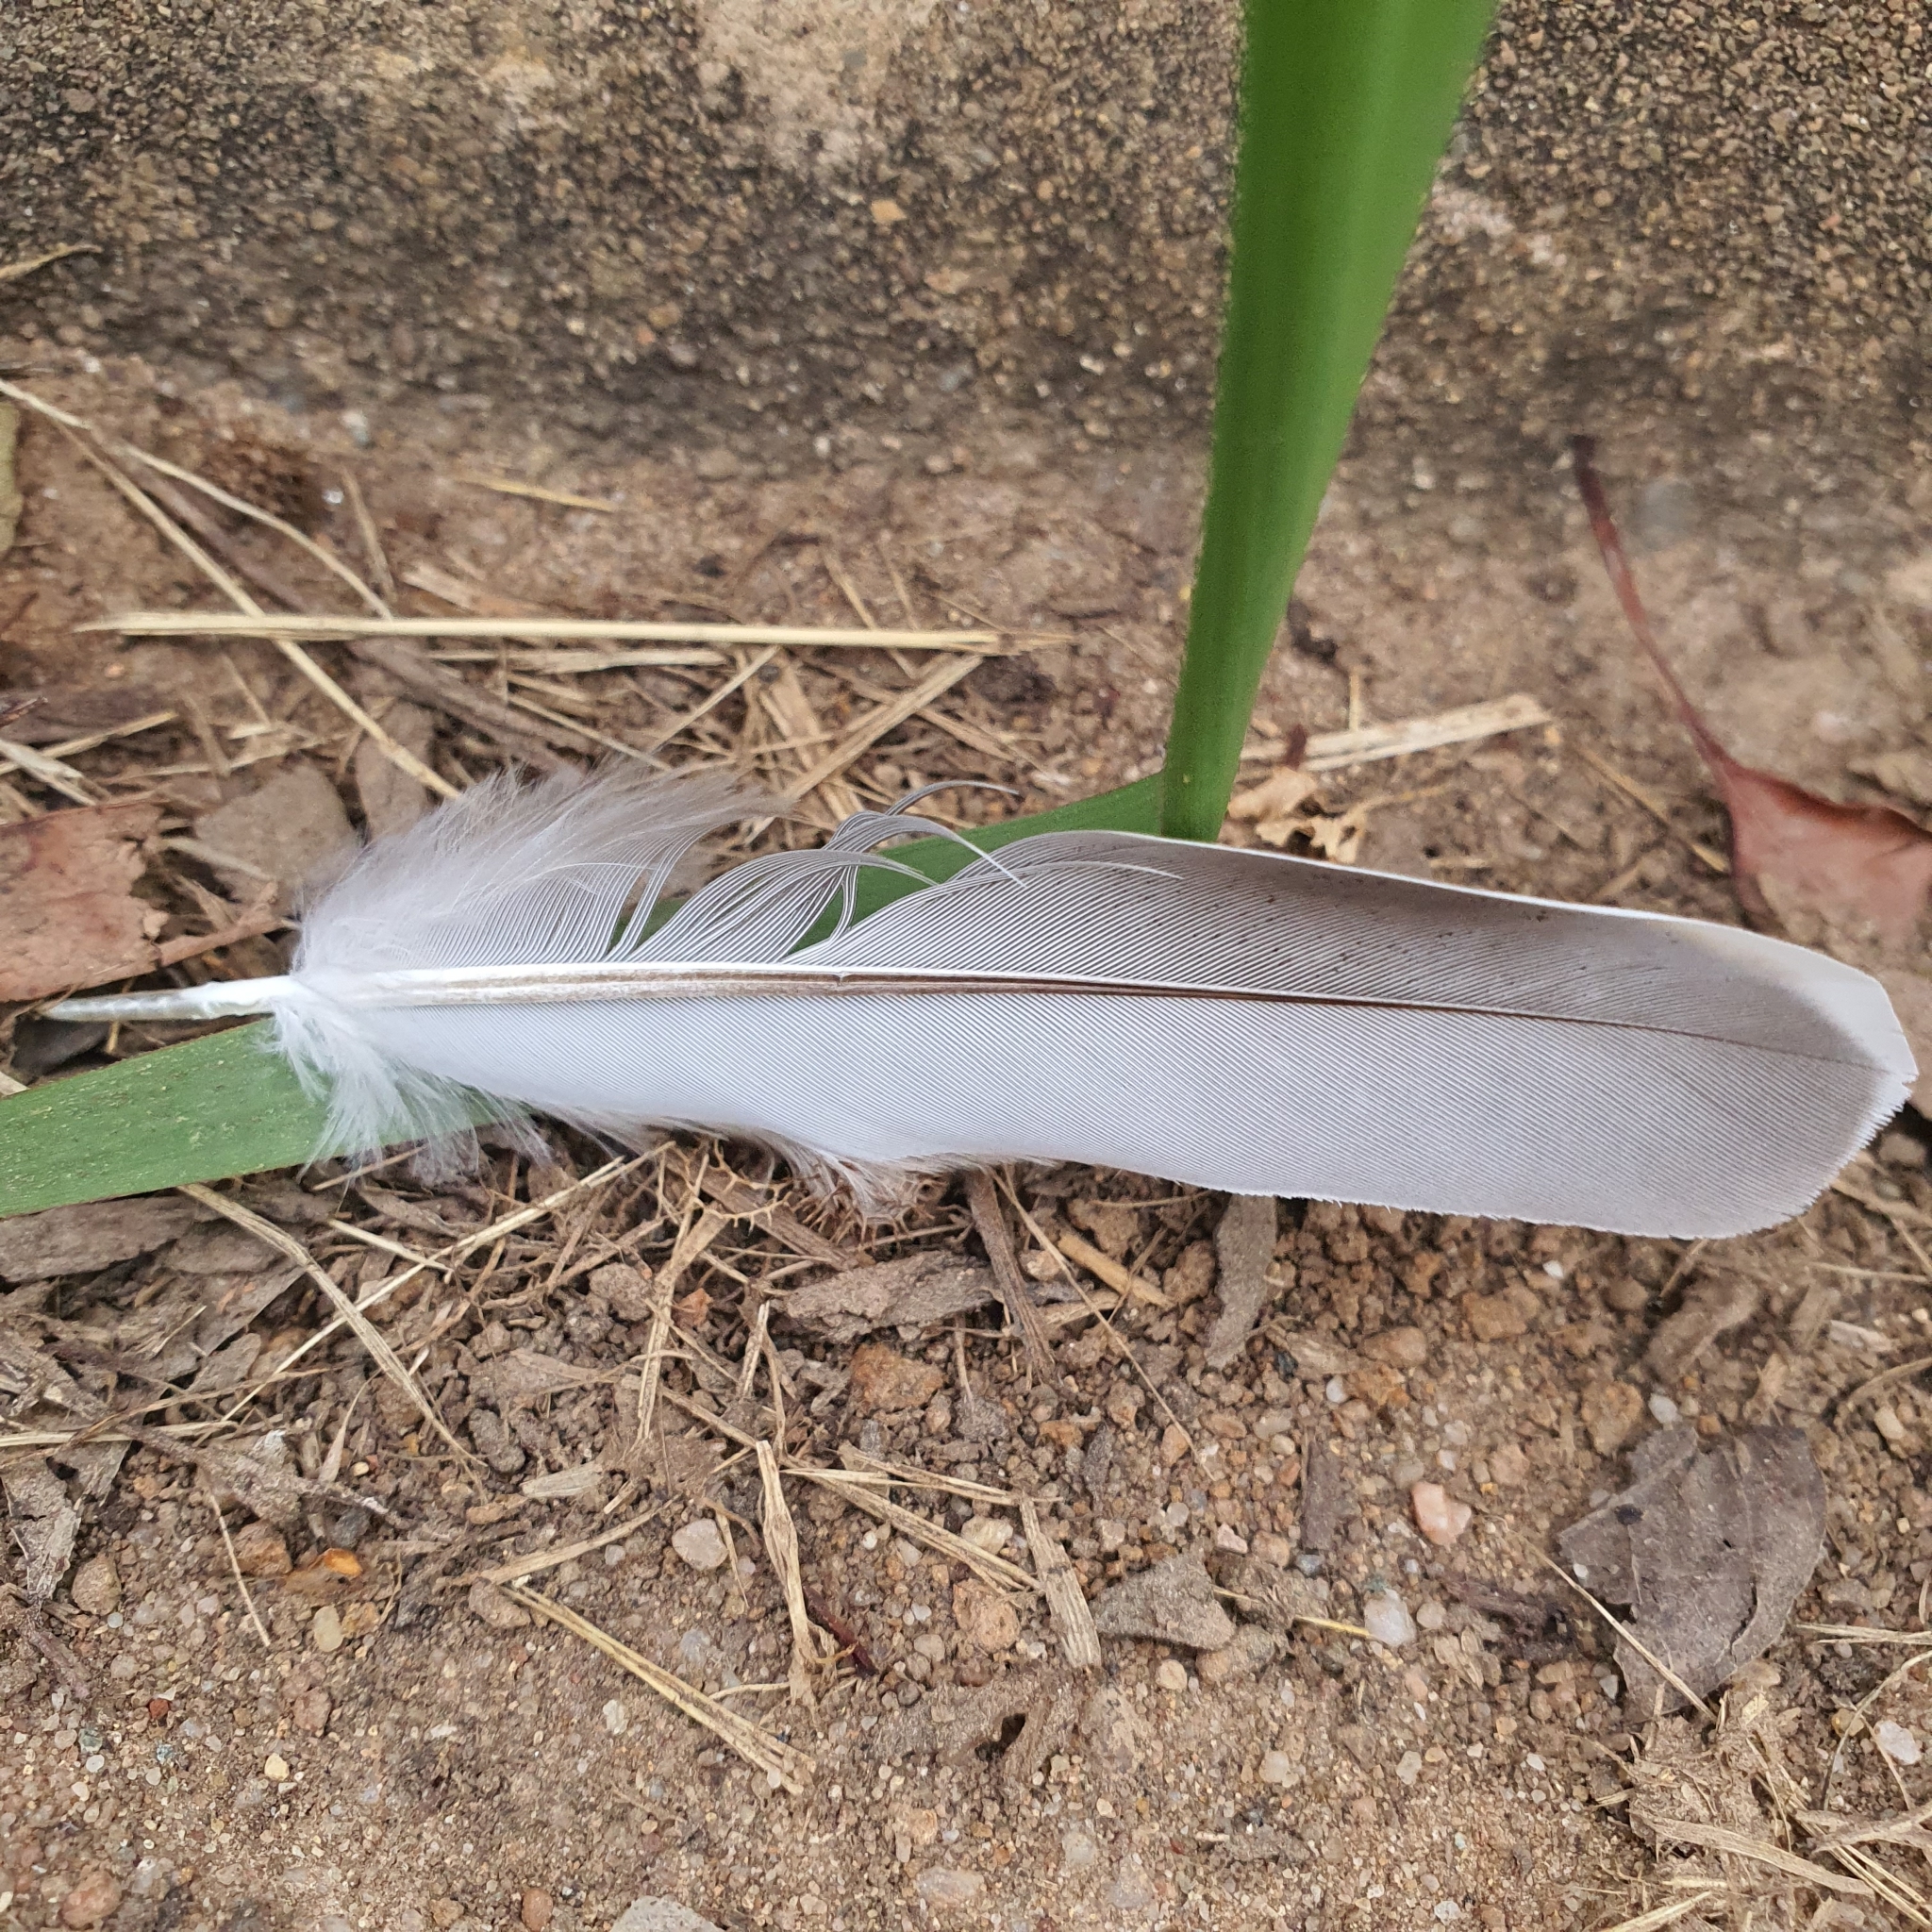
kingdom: Animalia
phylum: Chordata
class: Aves
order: Columbiformes
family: Columbidae
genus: Ocyphaps
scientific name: Ocyphaps lophotes
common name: Crested pigeon
